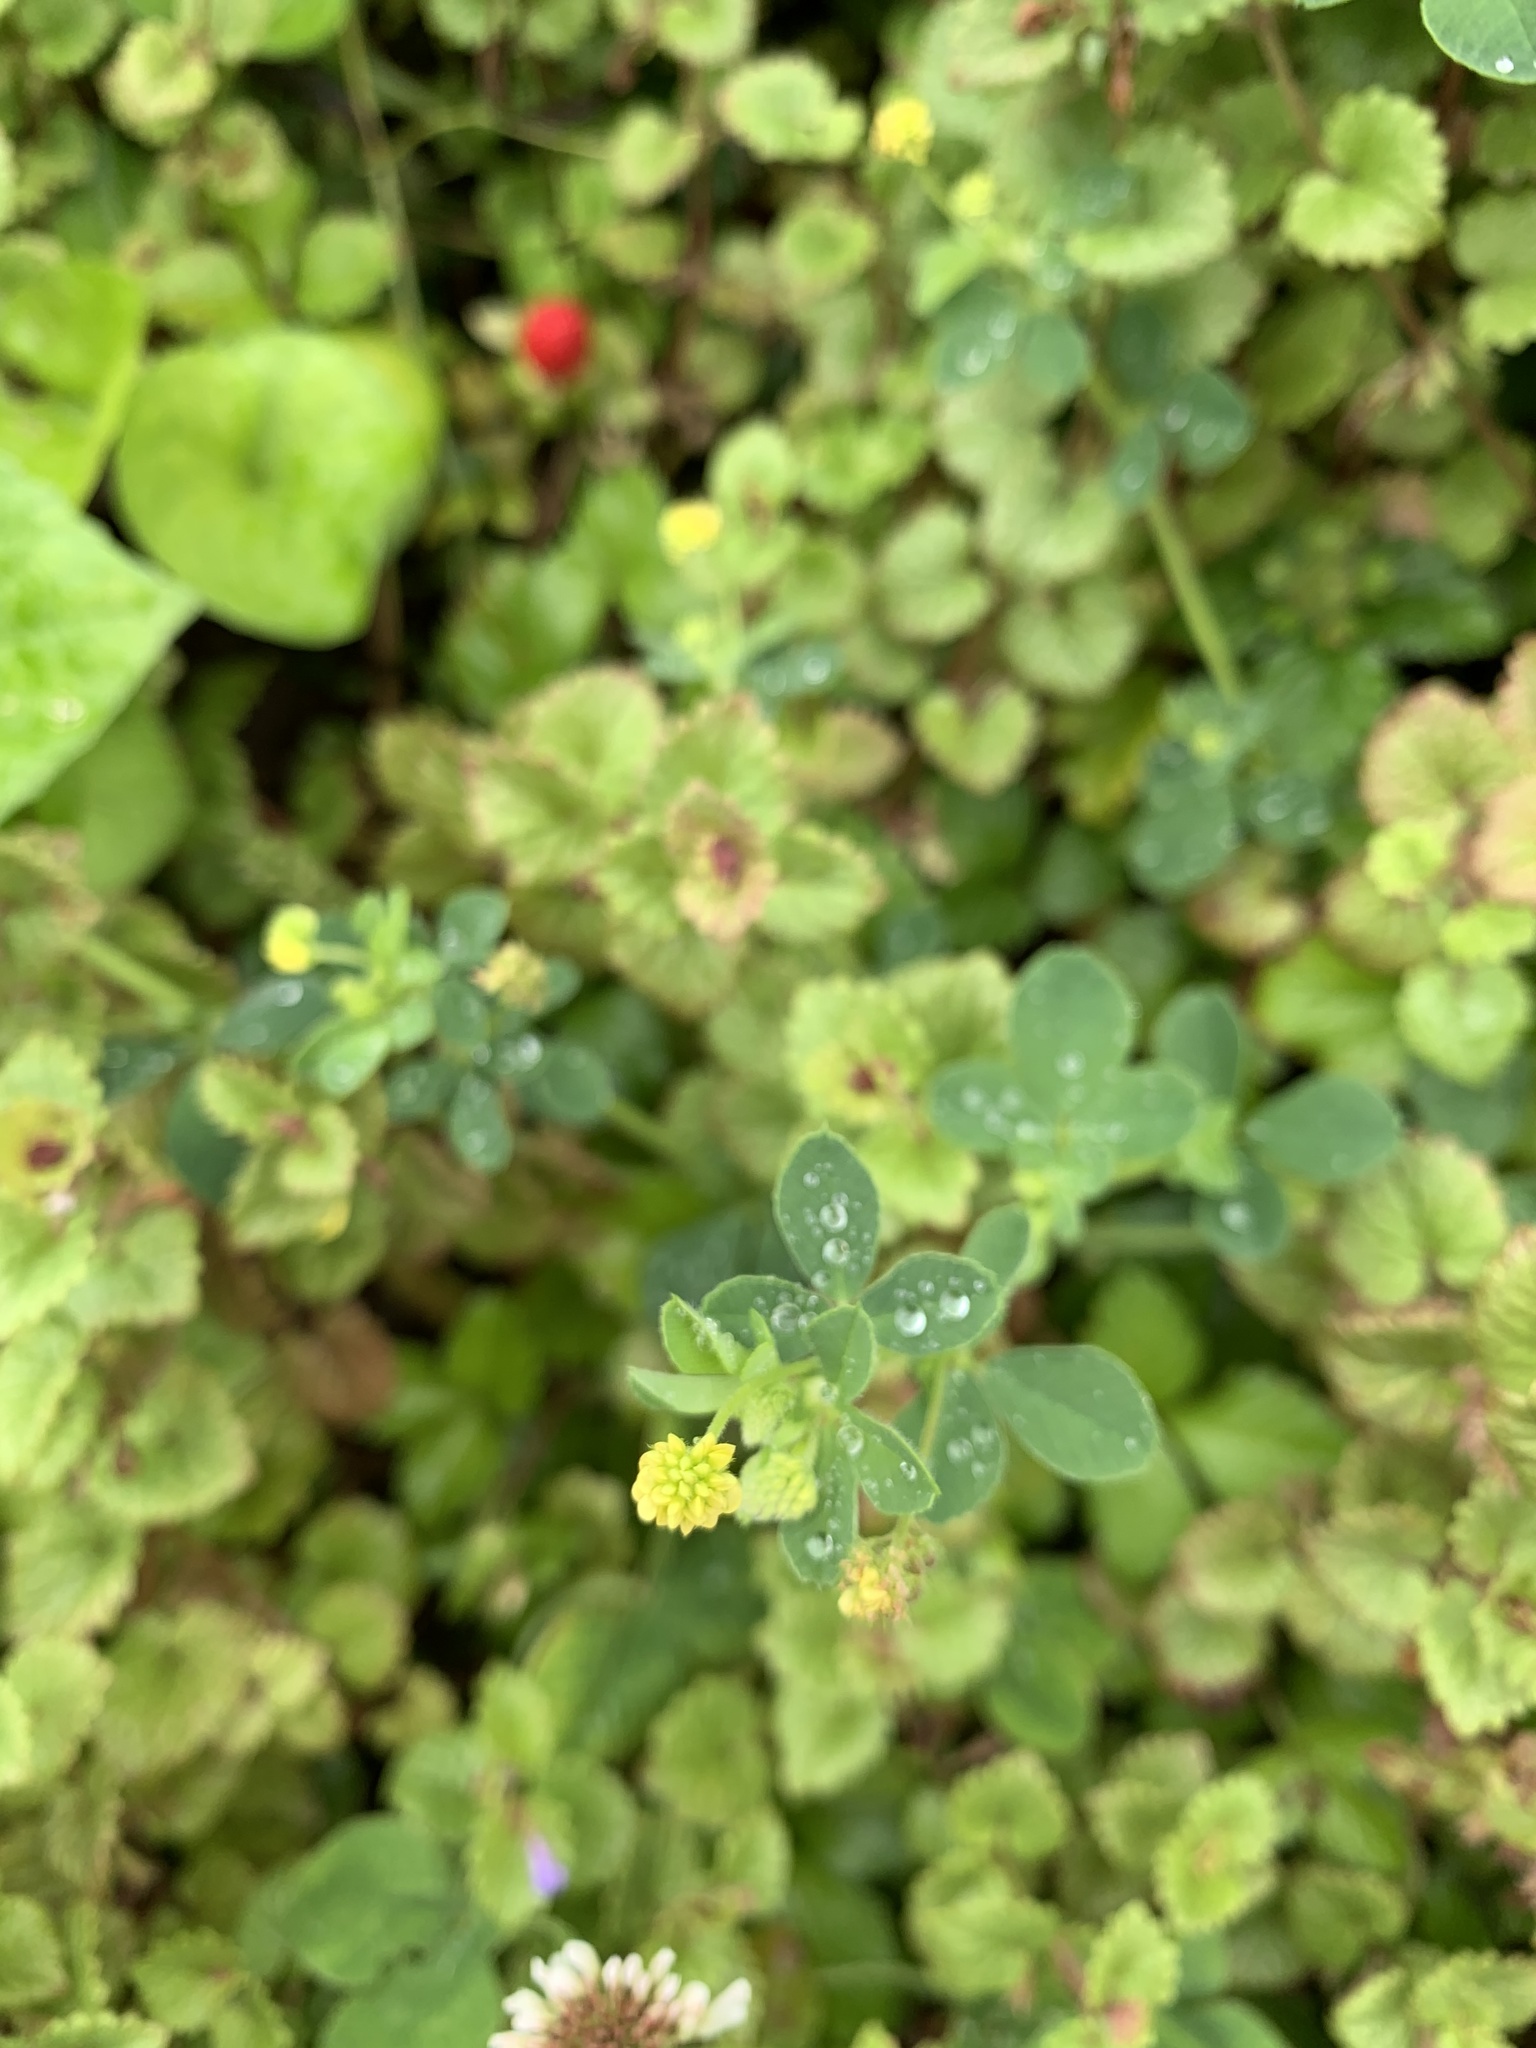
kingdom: Plantae
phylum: Tracheophyta
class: Magnoliopsida
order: Fabales
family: Fabaceae
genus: Medicago
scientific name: Medicago lupulina
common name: Black medick
